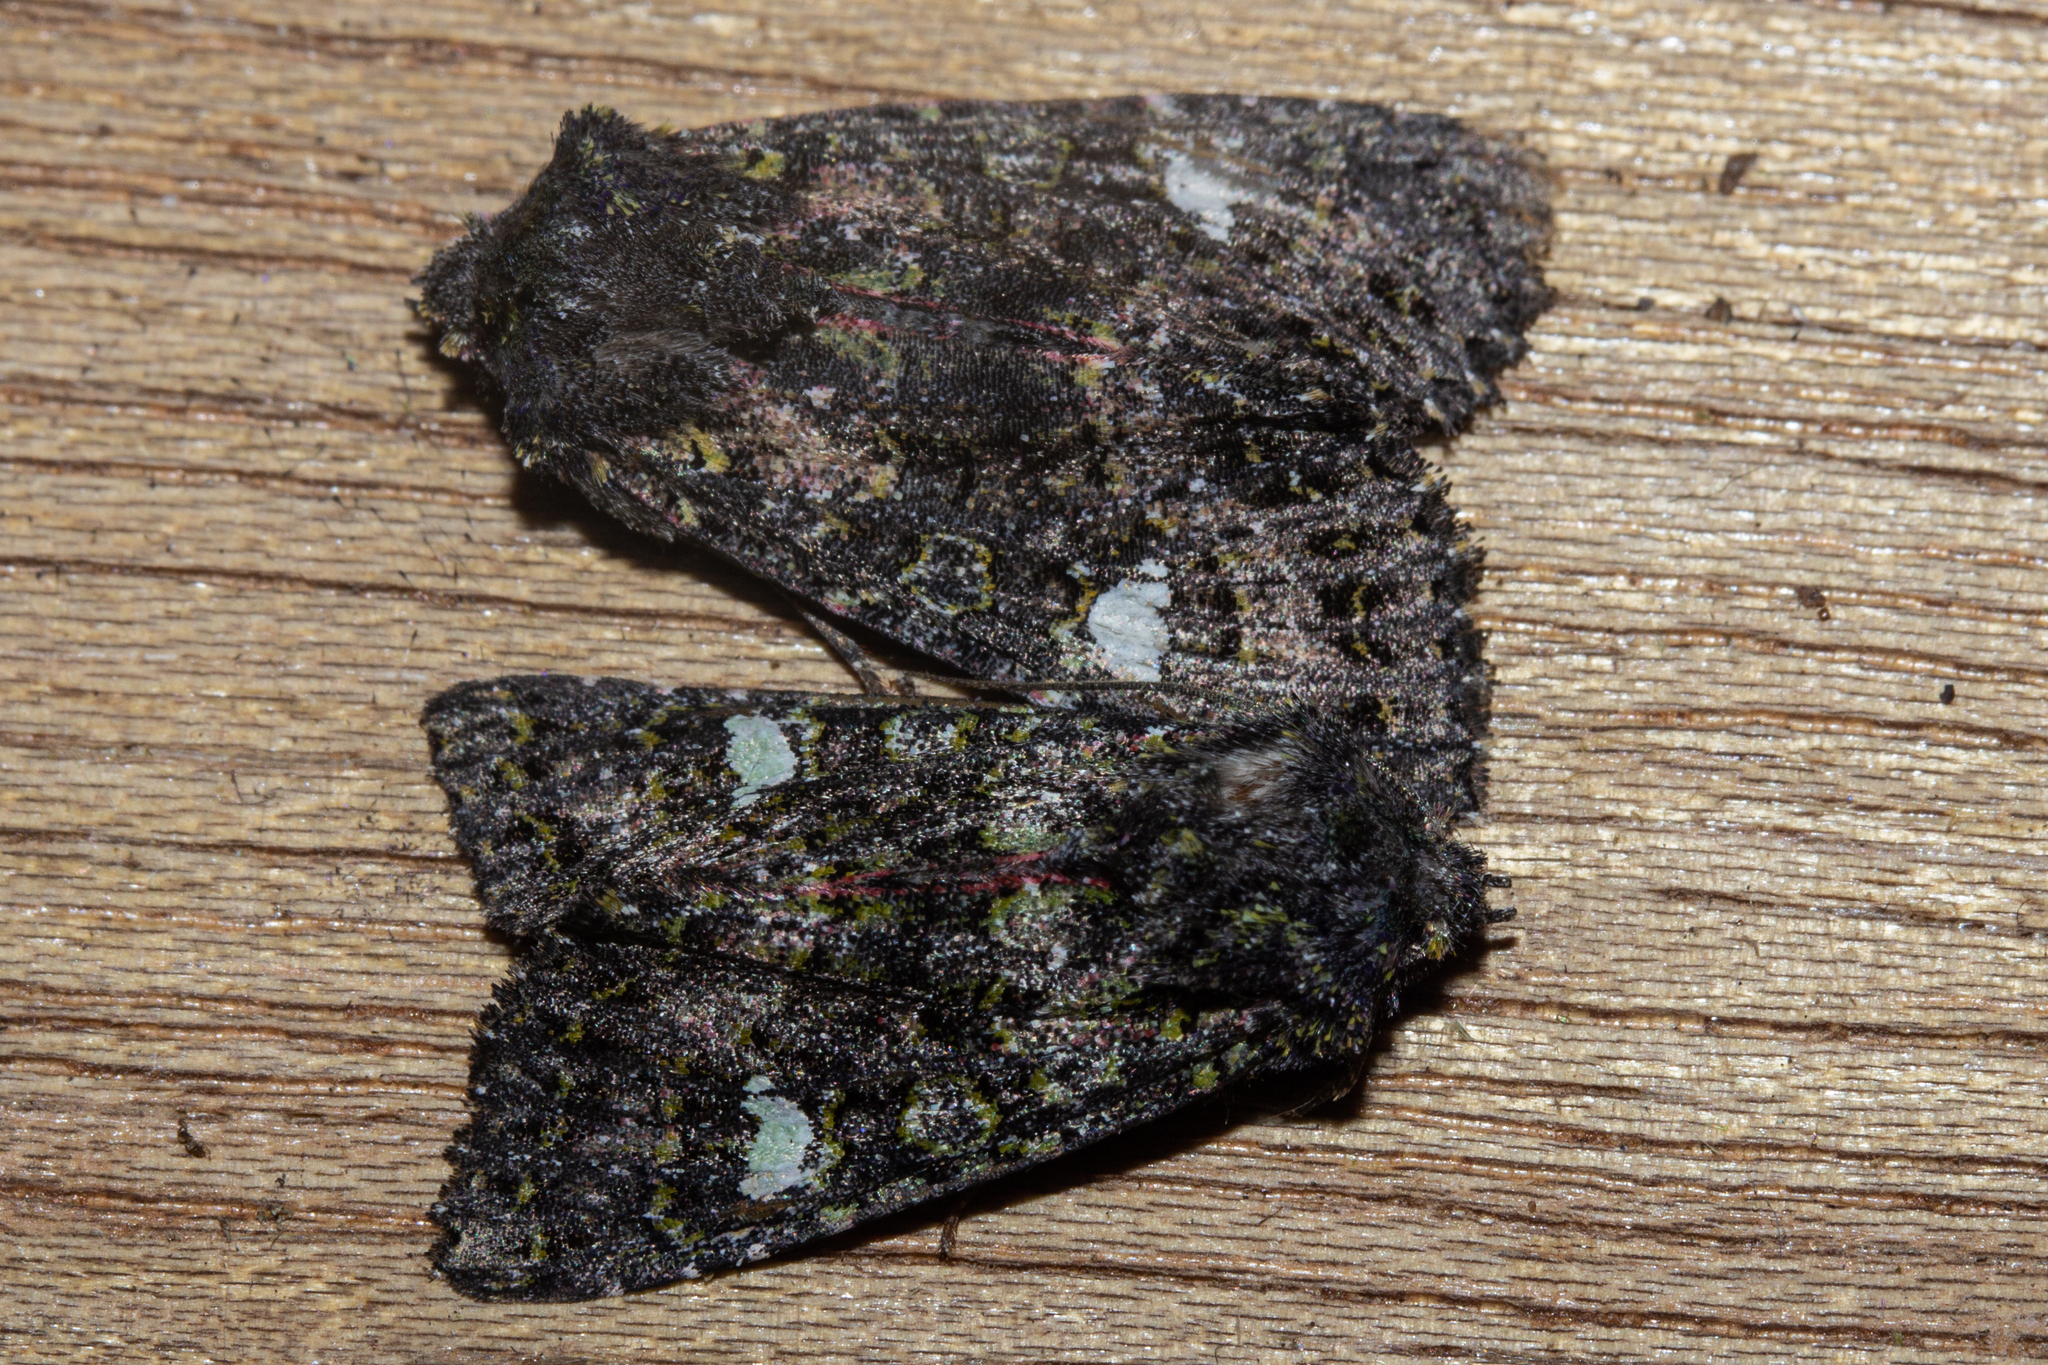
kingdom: Animalia
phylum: Arthropoda
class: Insecta
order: Lepidoptera
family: Noctuidae
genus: Meterana
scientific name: Meterana meyricci
